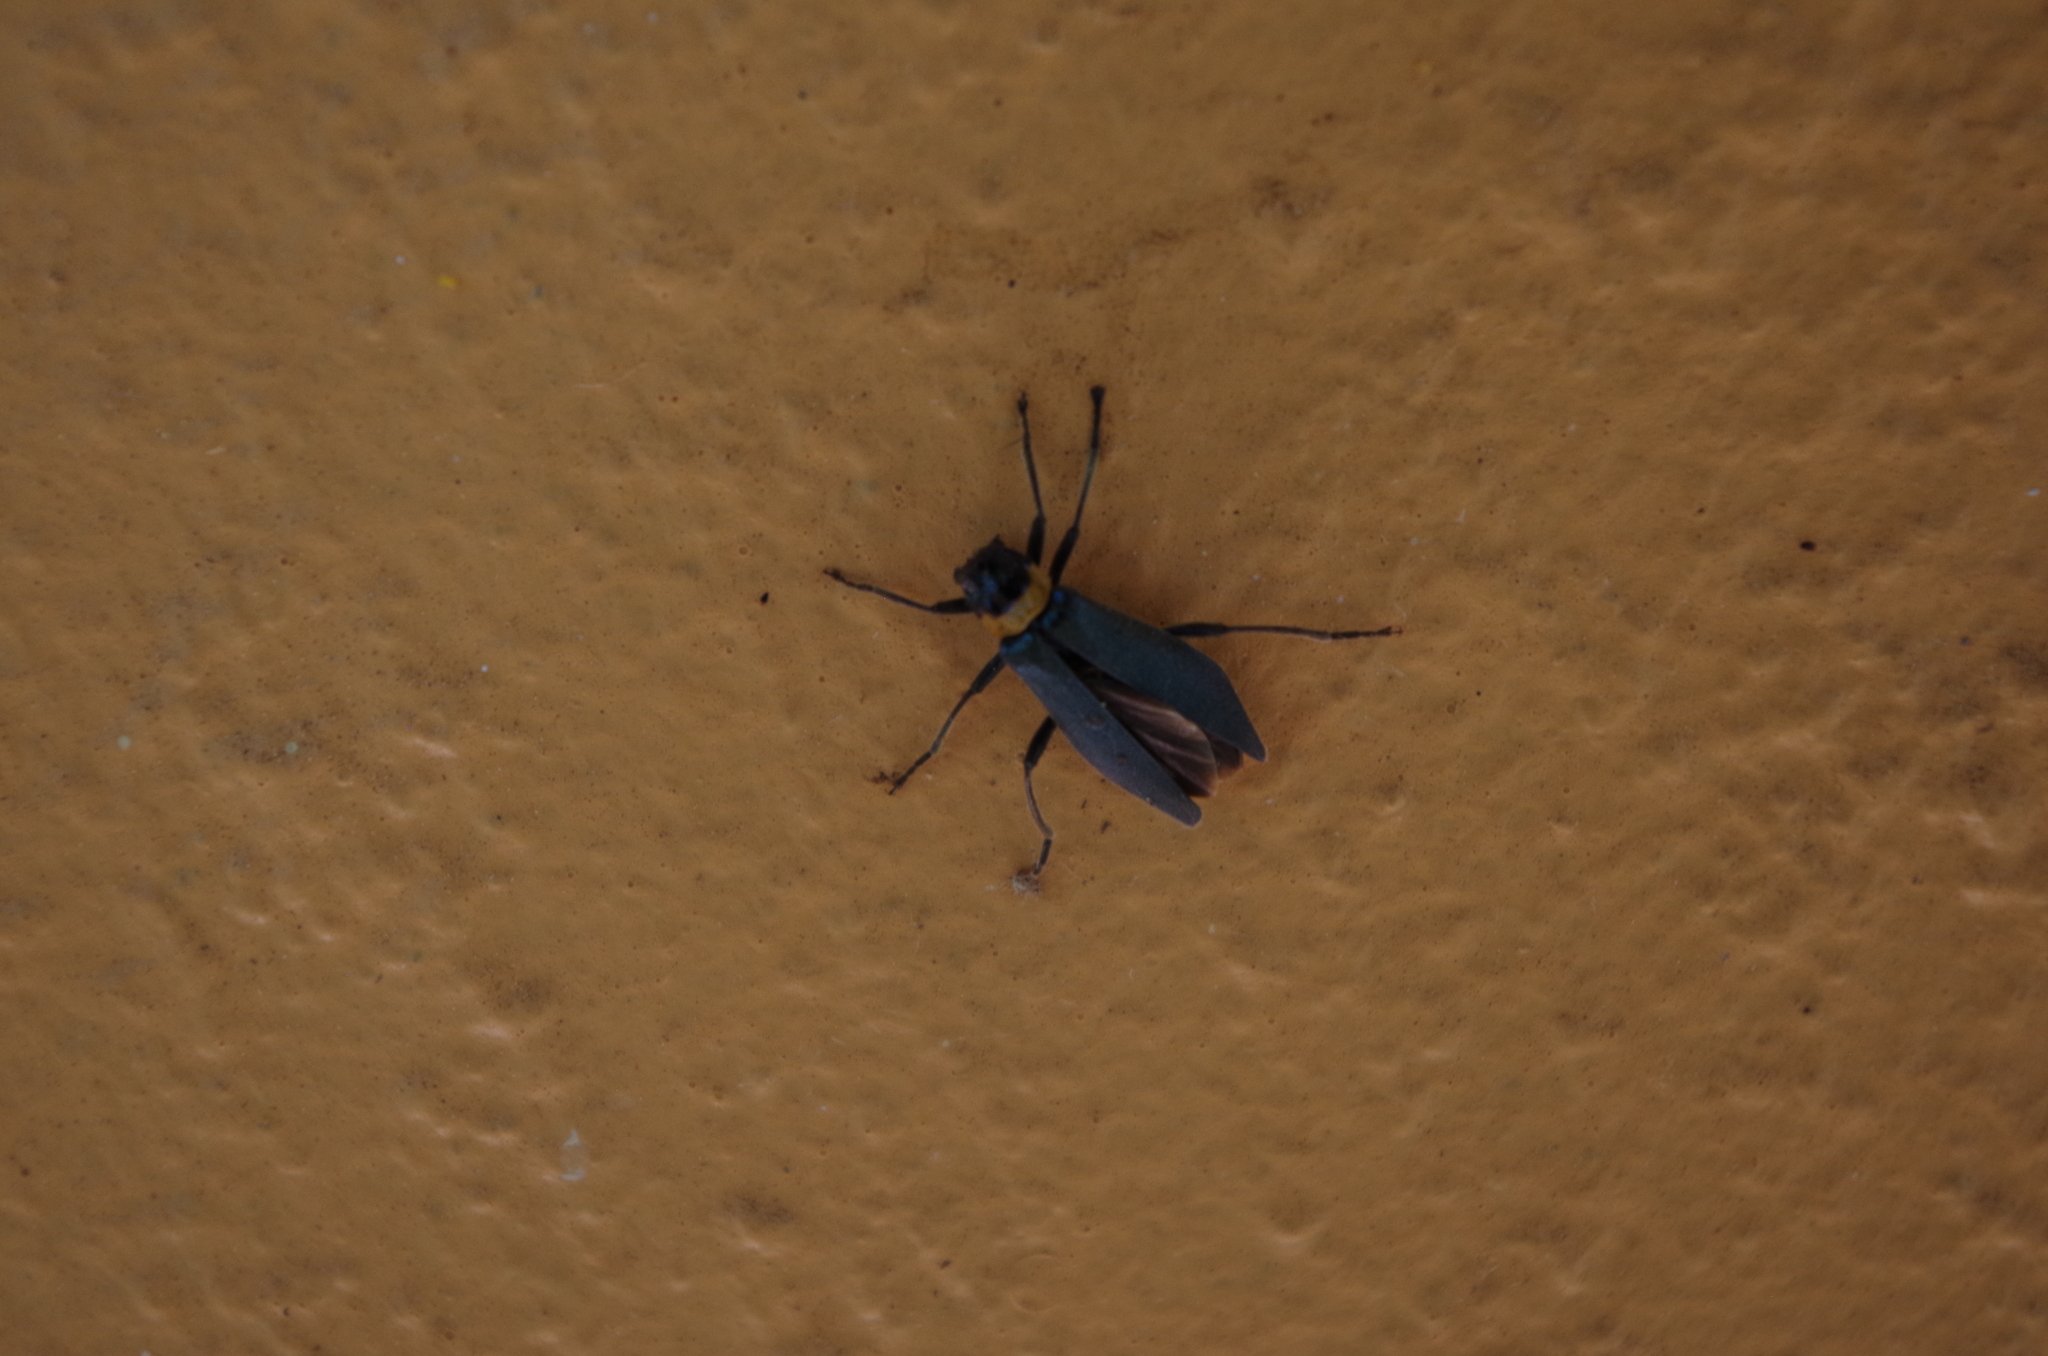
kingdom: Animalia
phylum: Arthropoda
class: Insecta
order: Coleoptera
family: Cantharidae
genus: Chauliognathus
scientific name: Chauliognathus
